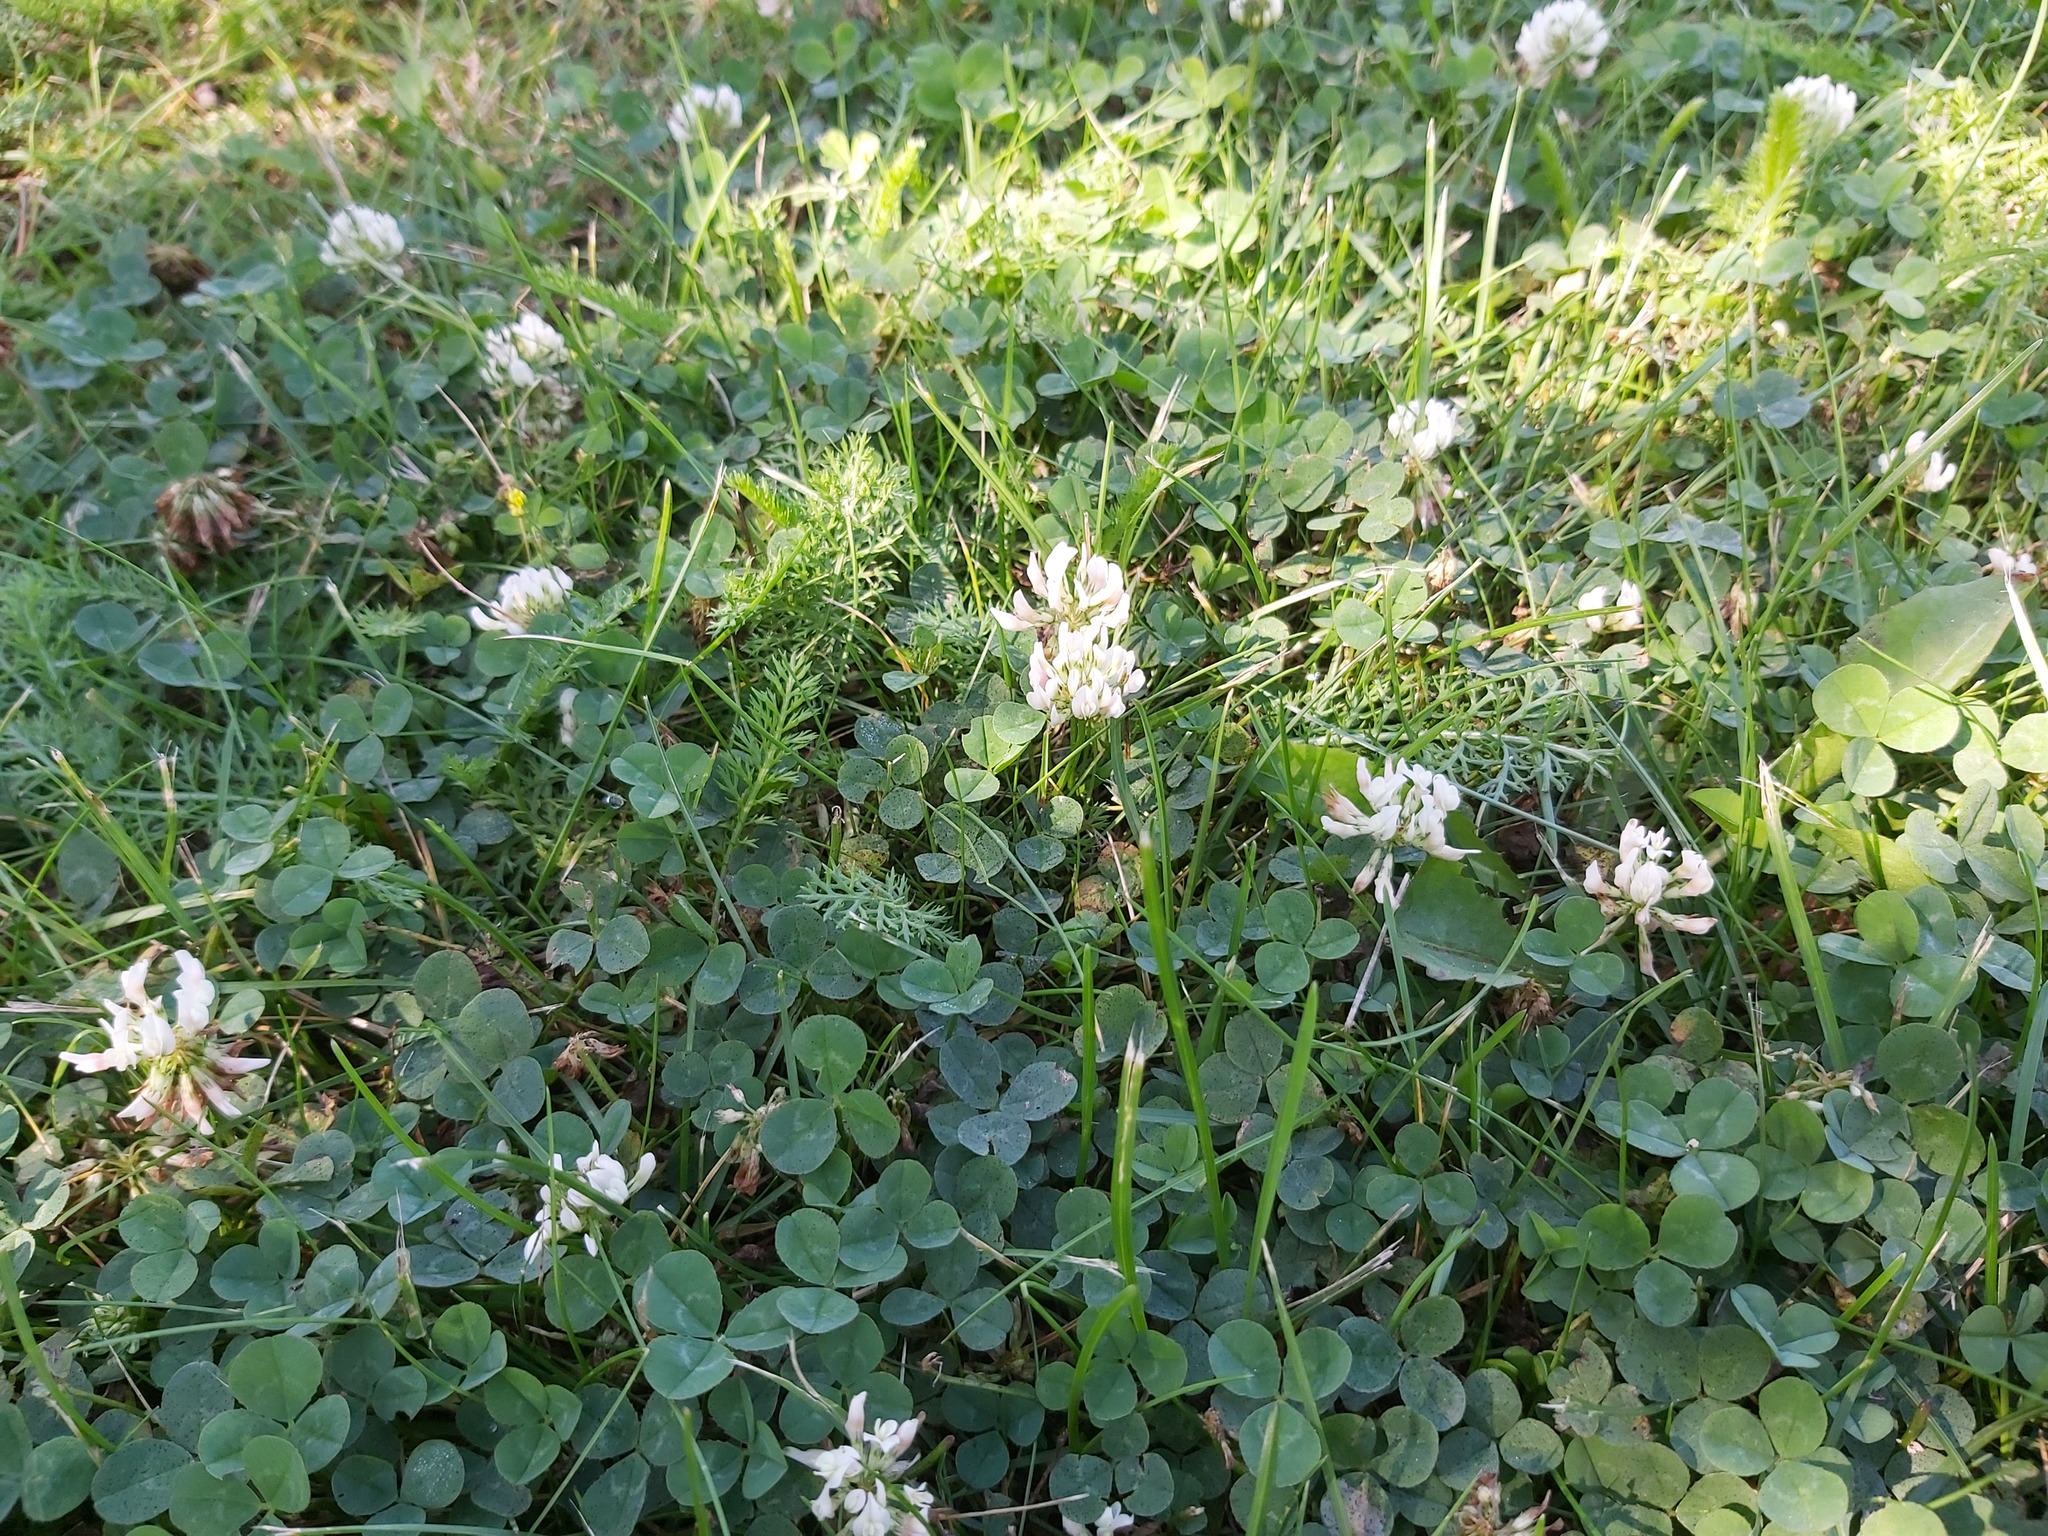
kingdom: Plantae
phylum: Tracheophyta
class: Magnoliopsida
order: Fabales
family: Fabaceae
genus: Trifolium
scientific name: Trifolium repens
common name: White clover
